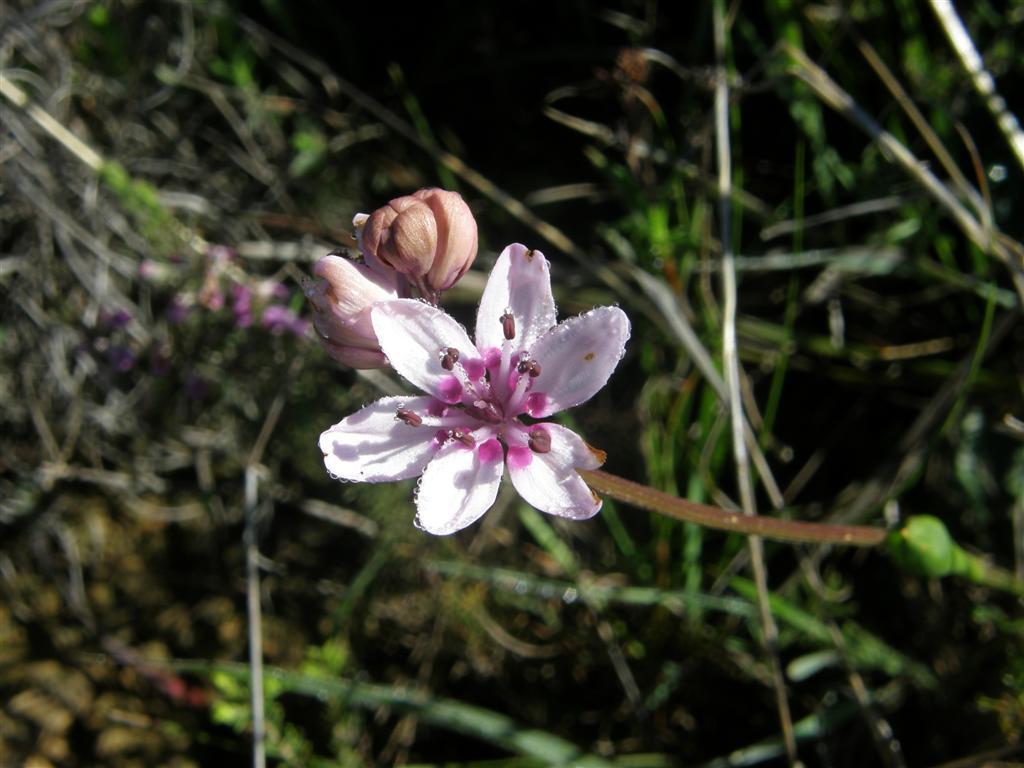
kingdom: Plantae
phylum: Tracheophyta
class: Liliopsida
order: Liliales
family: Colchicaceae
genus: Wurmbea
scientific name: Wurmbea punctata
